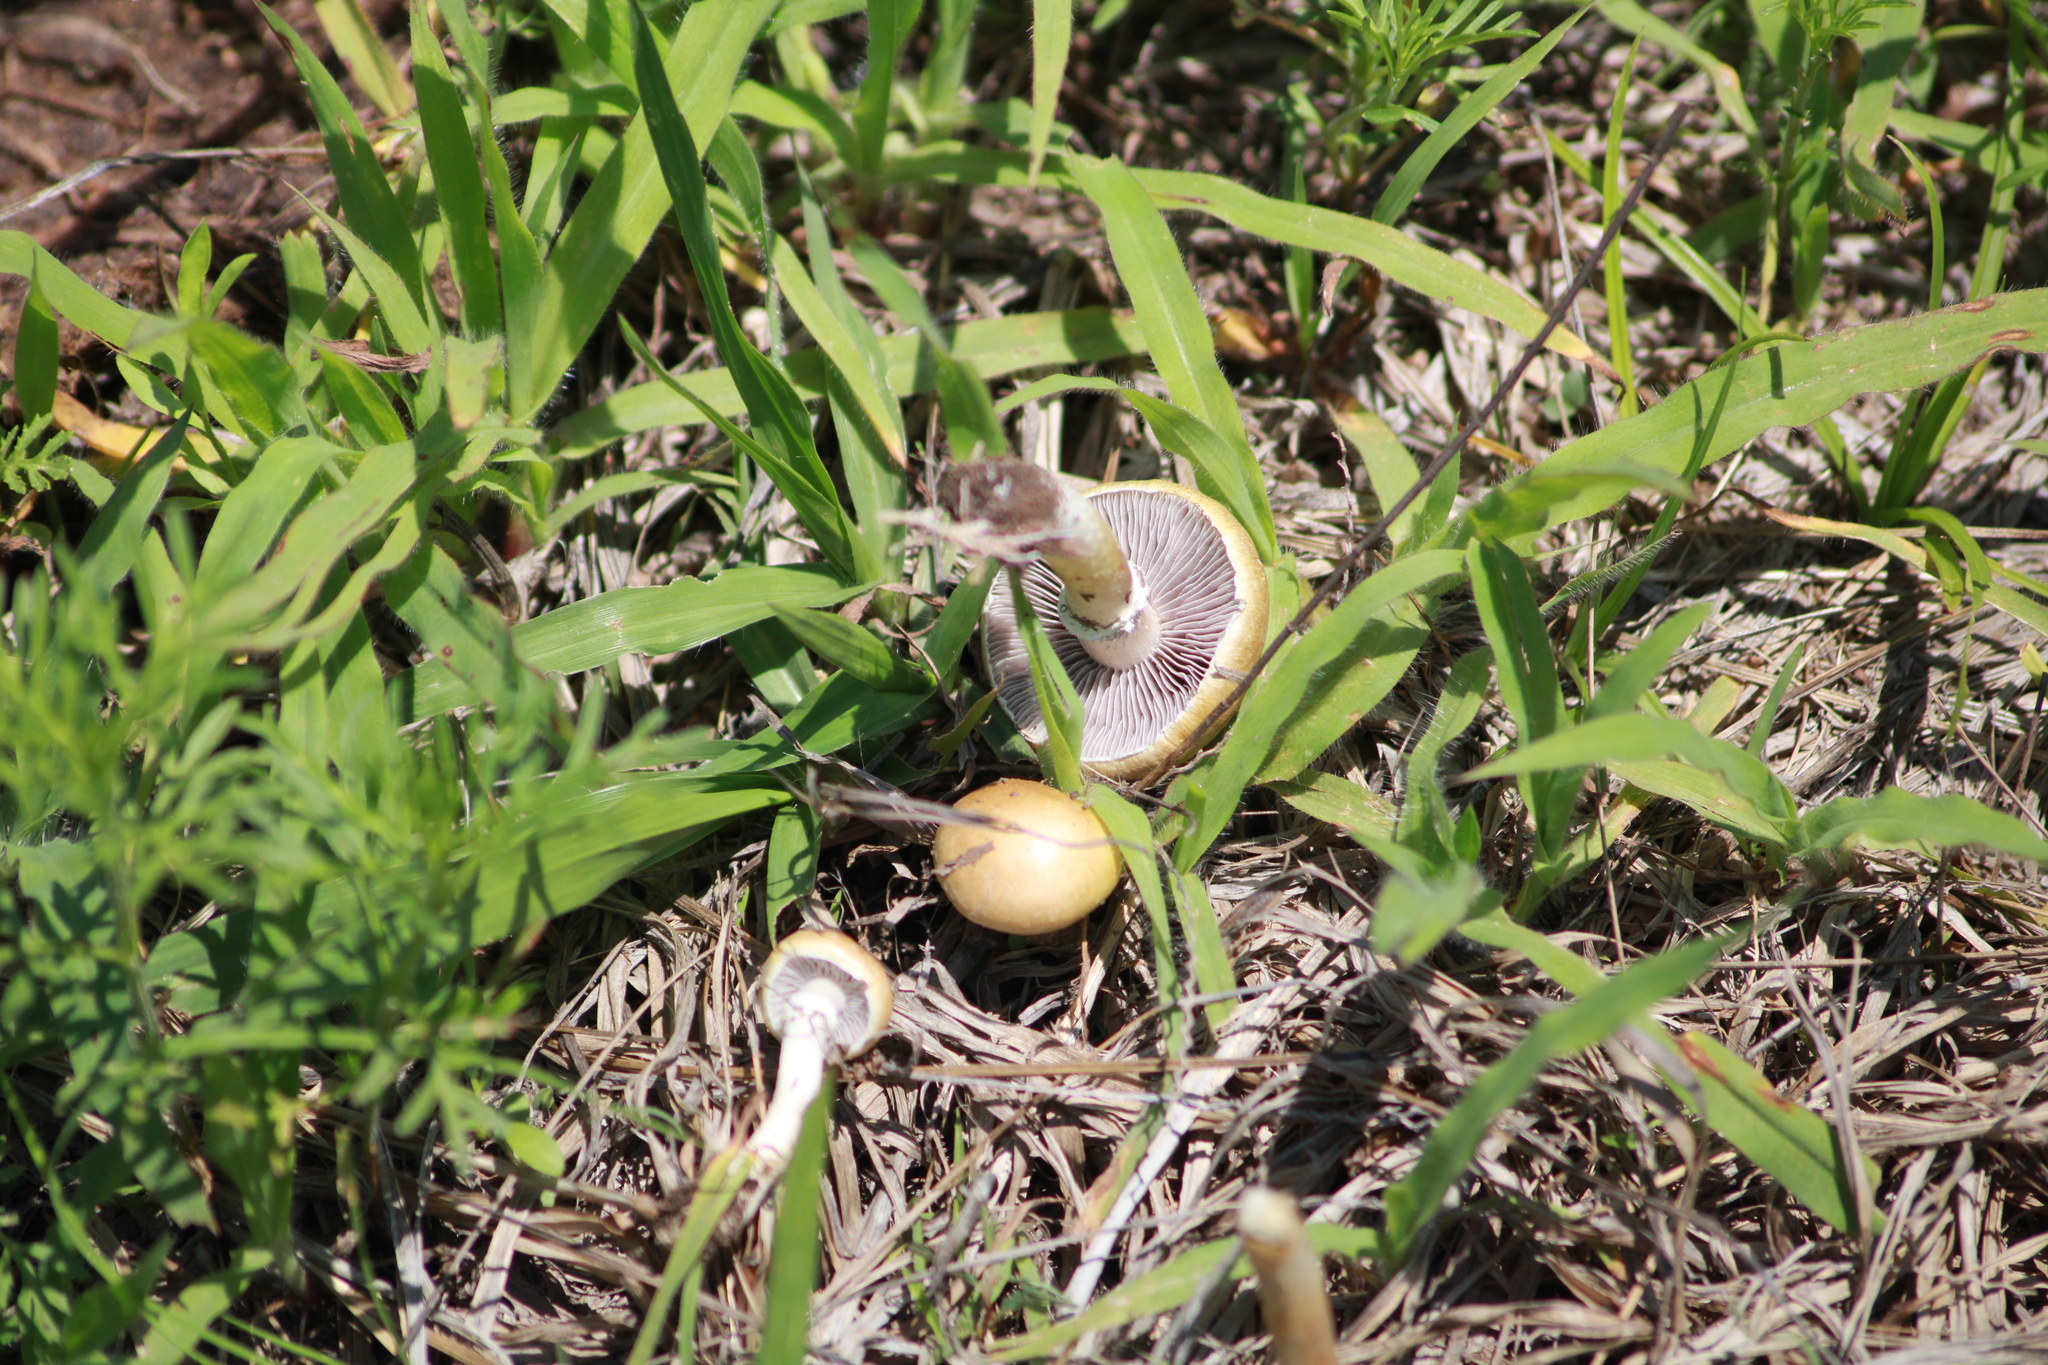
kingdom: Fungi
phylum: Basidiomycota
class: Agaricomycetes
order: Agaricales
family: Hymenogastraceae
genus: Psilocybe
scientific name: Psilocybe coronilla
